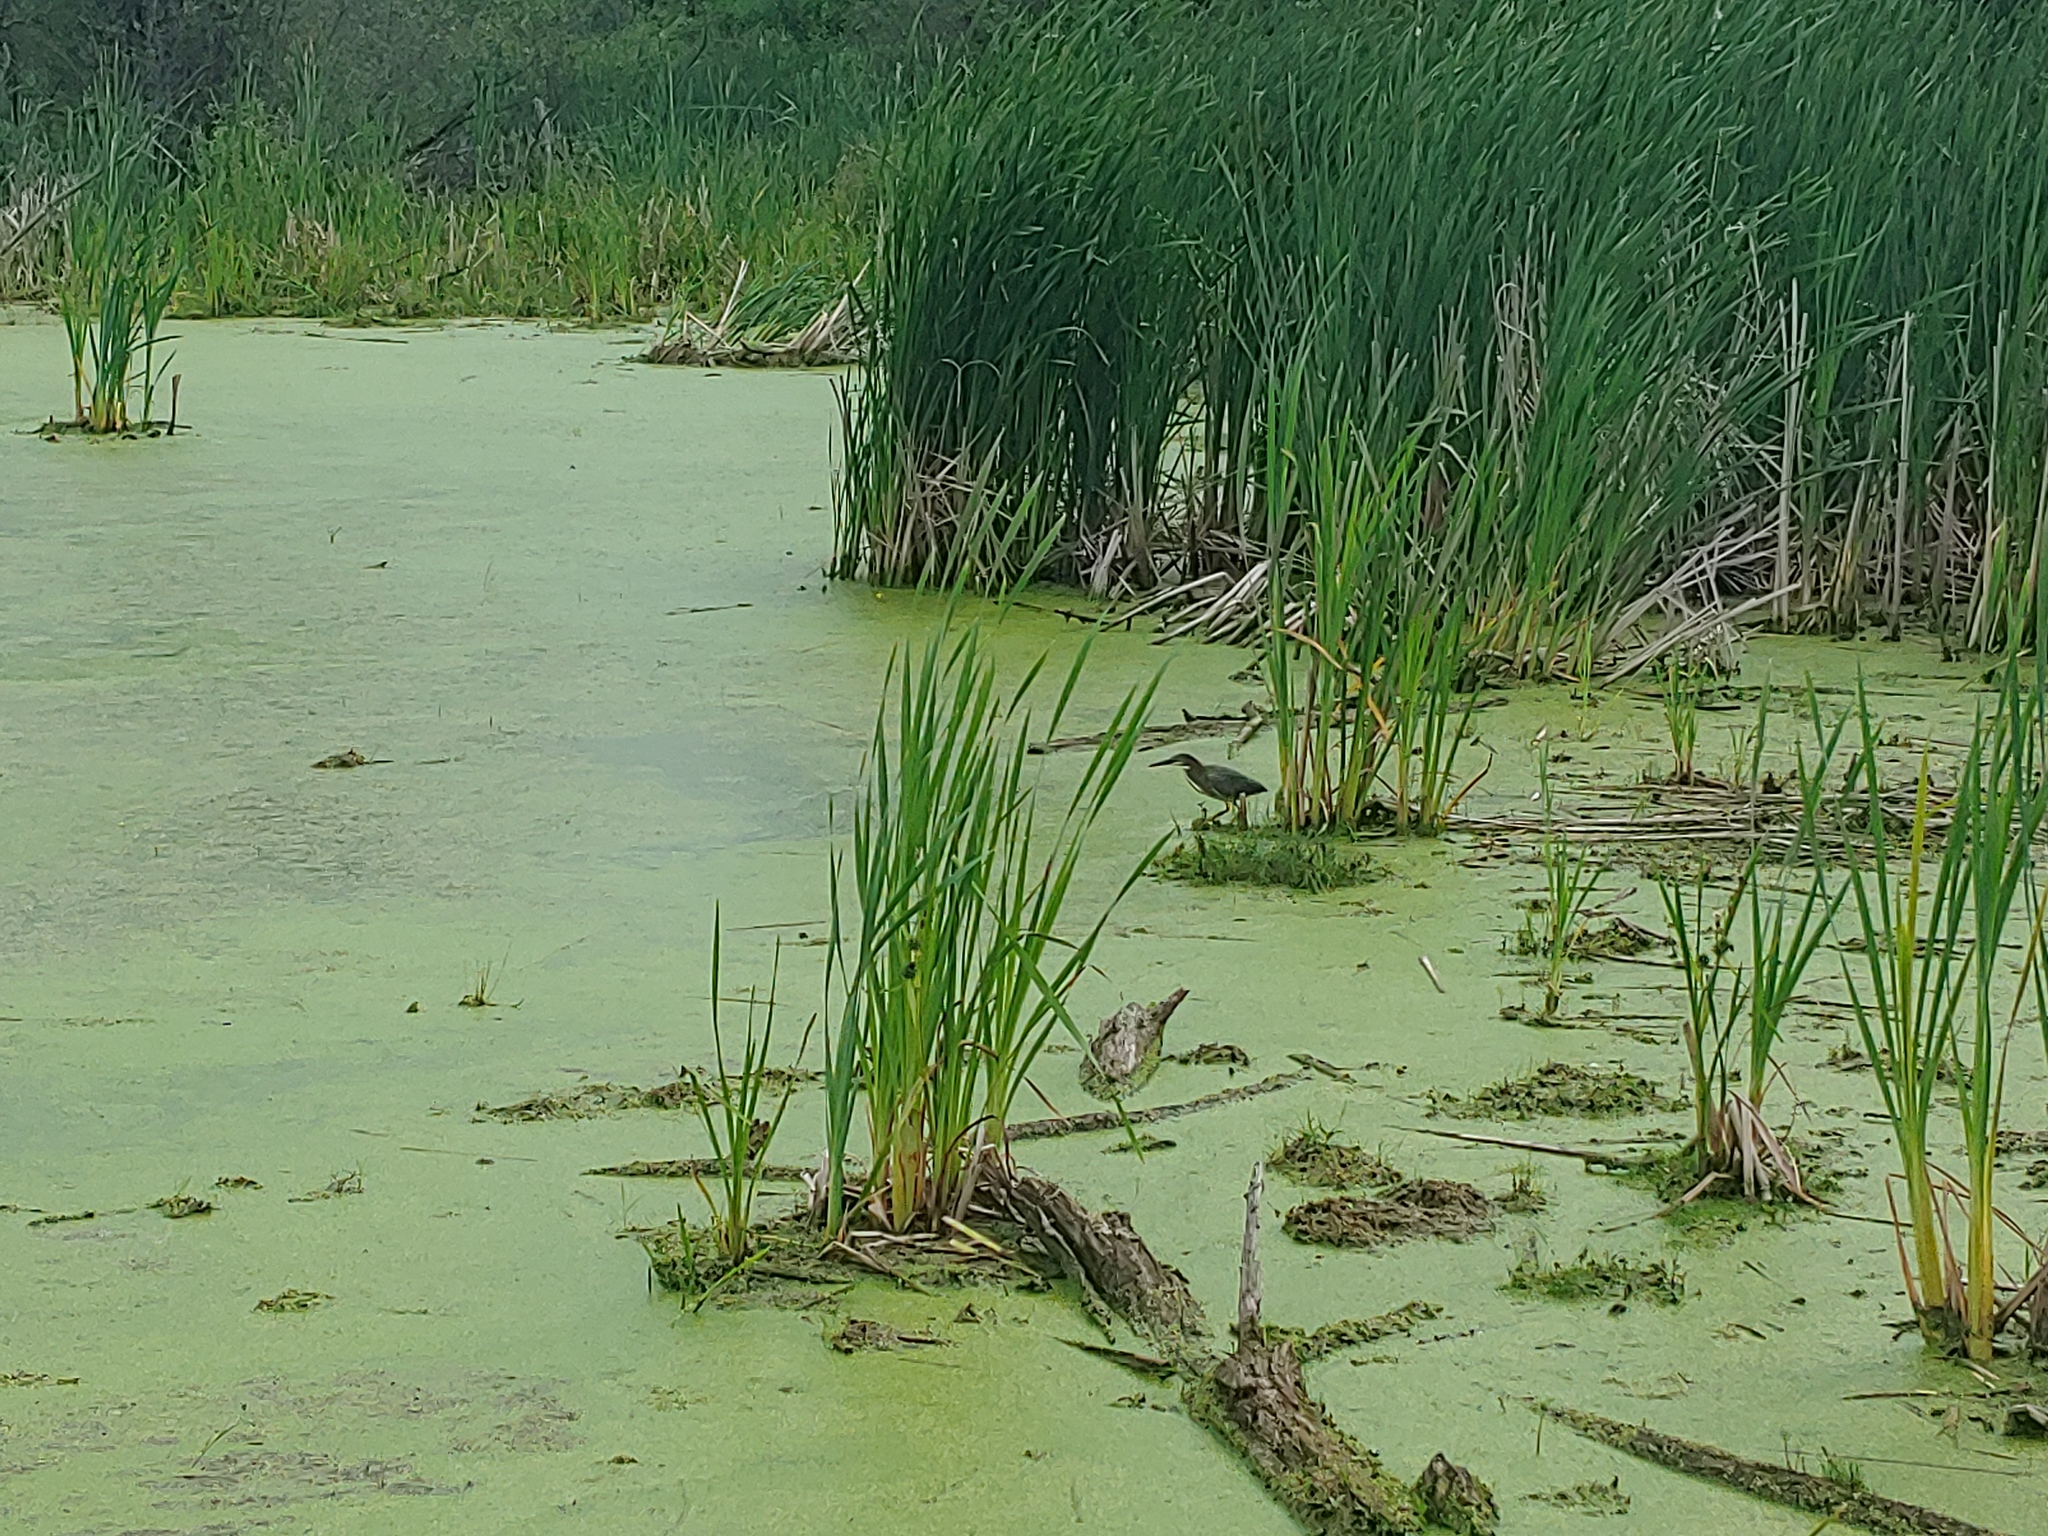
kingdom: Animalia
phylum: Chordata
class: Aves
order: Pelecaniformes
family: Ardeidae
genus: Butorides
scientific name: Butorides virescens
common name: Green heron
